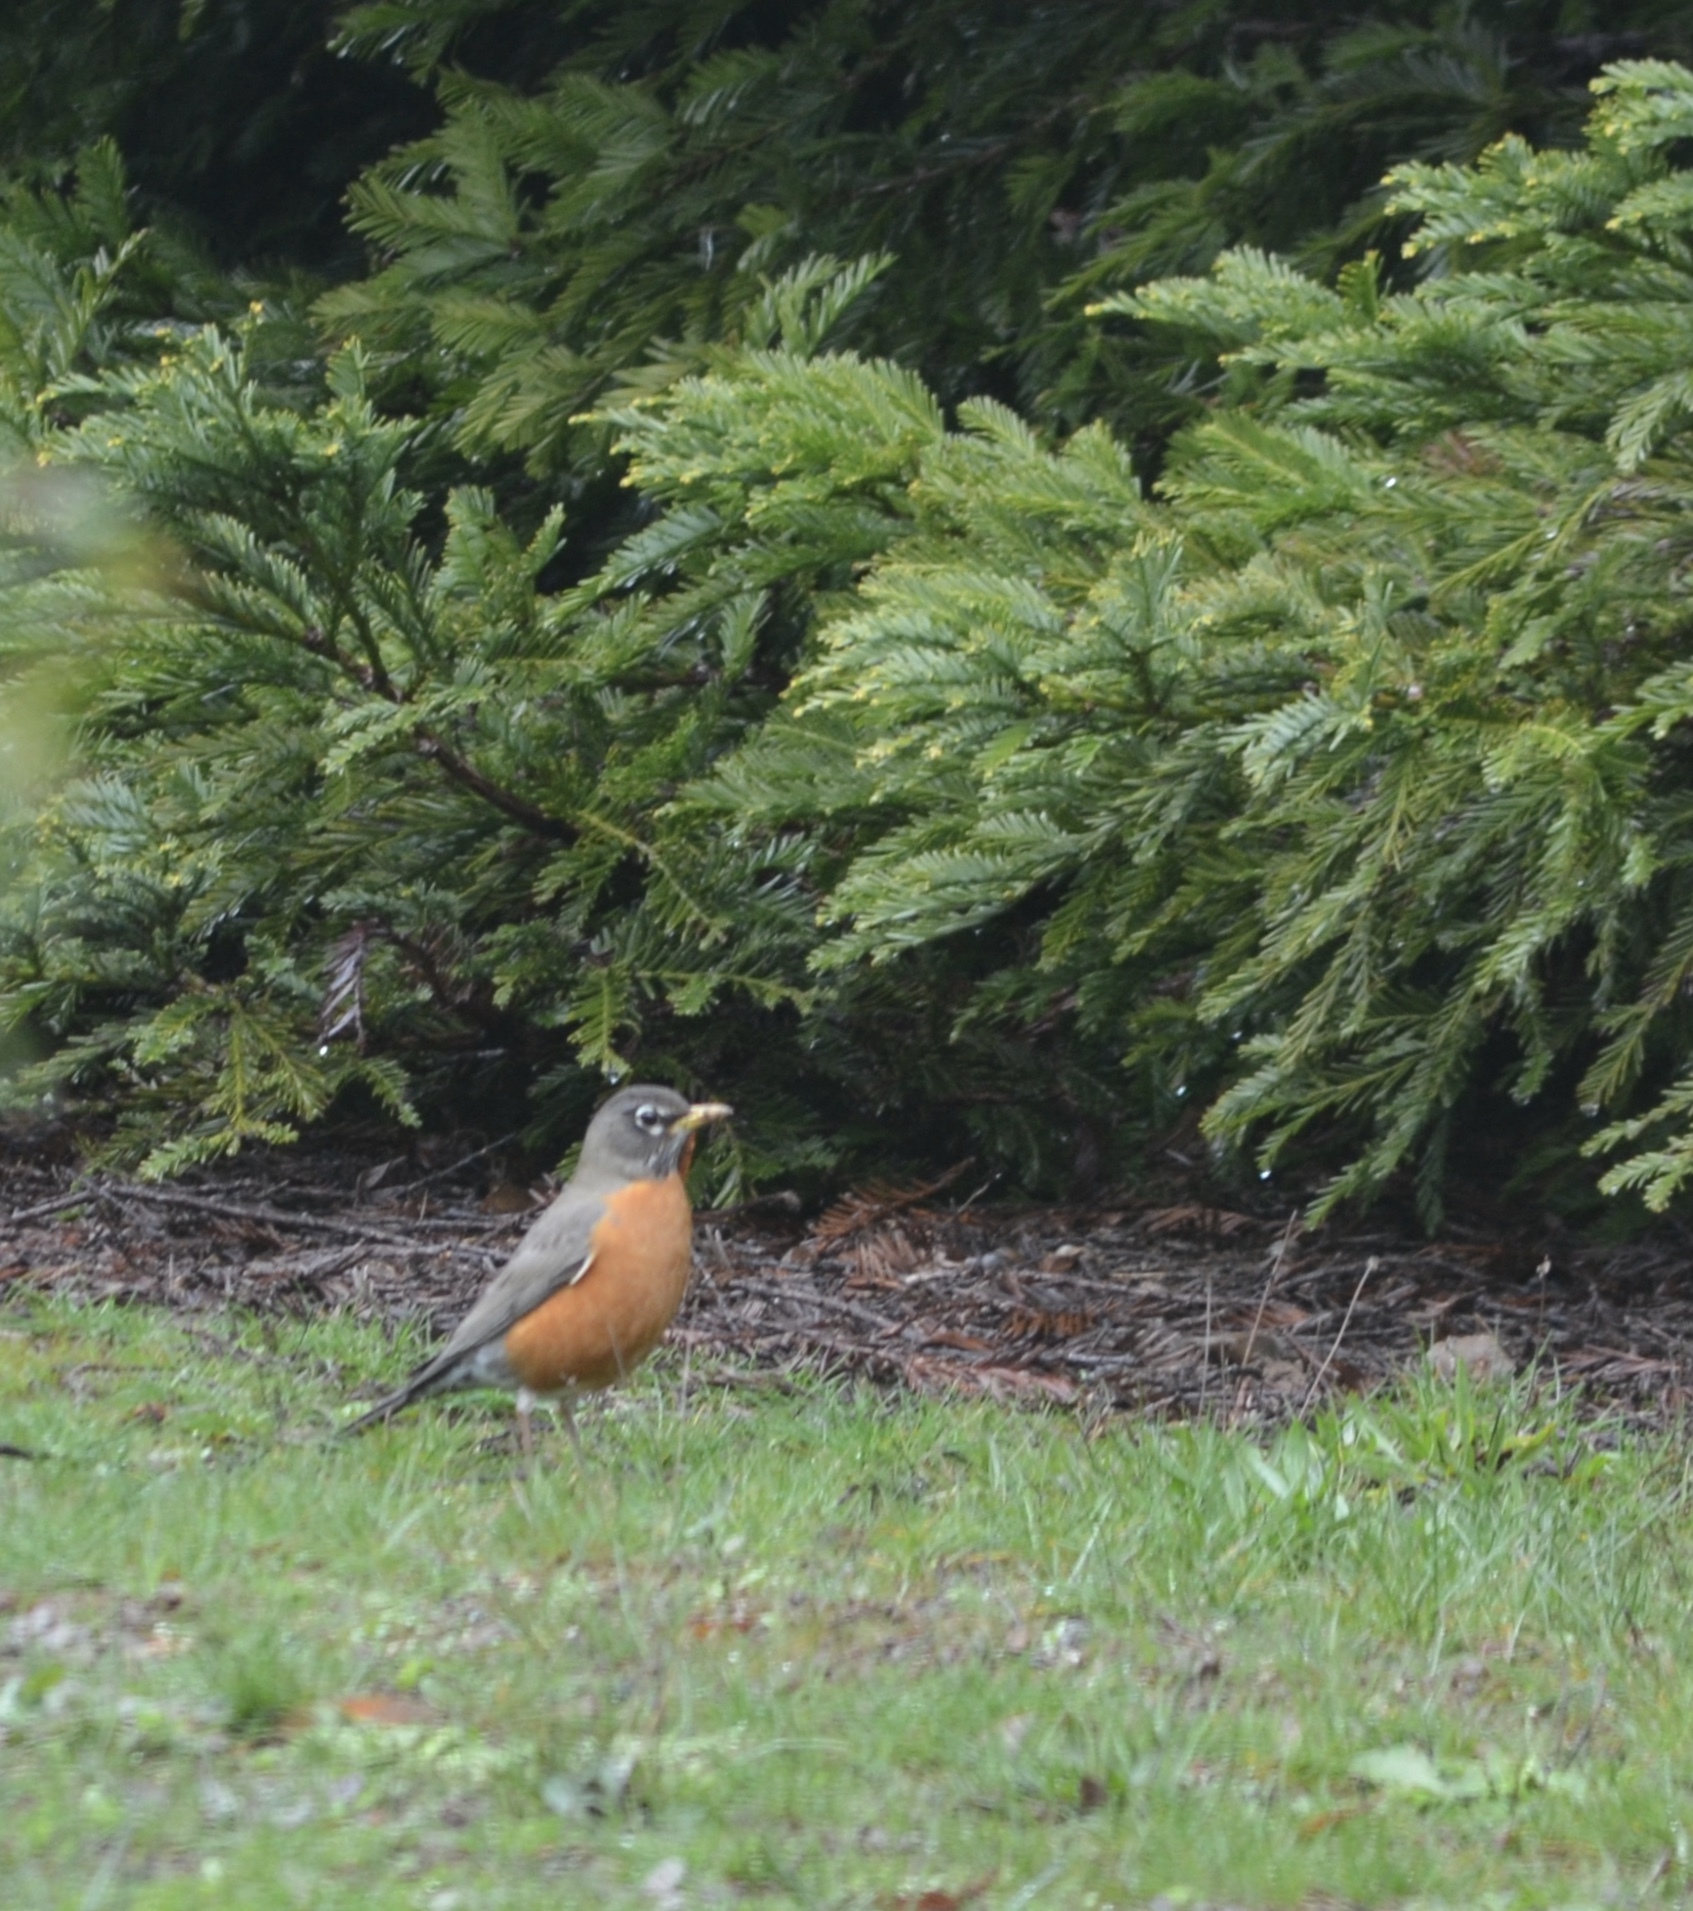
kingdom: Animalia
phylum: Chordata
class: Aves
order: Passeriformes
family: Turdidae
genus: Turdus
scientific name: Turdus migratorius
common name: American robin
